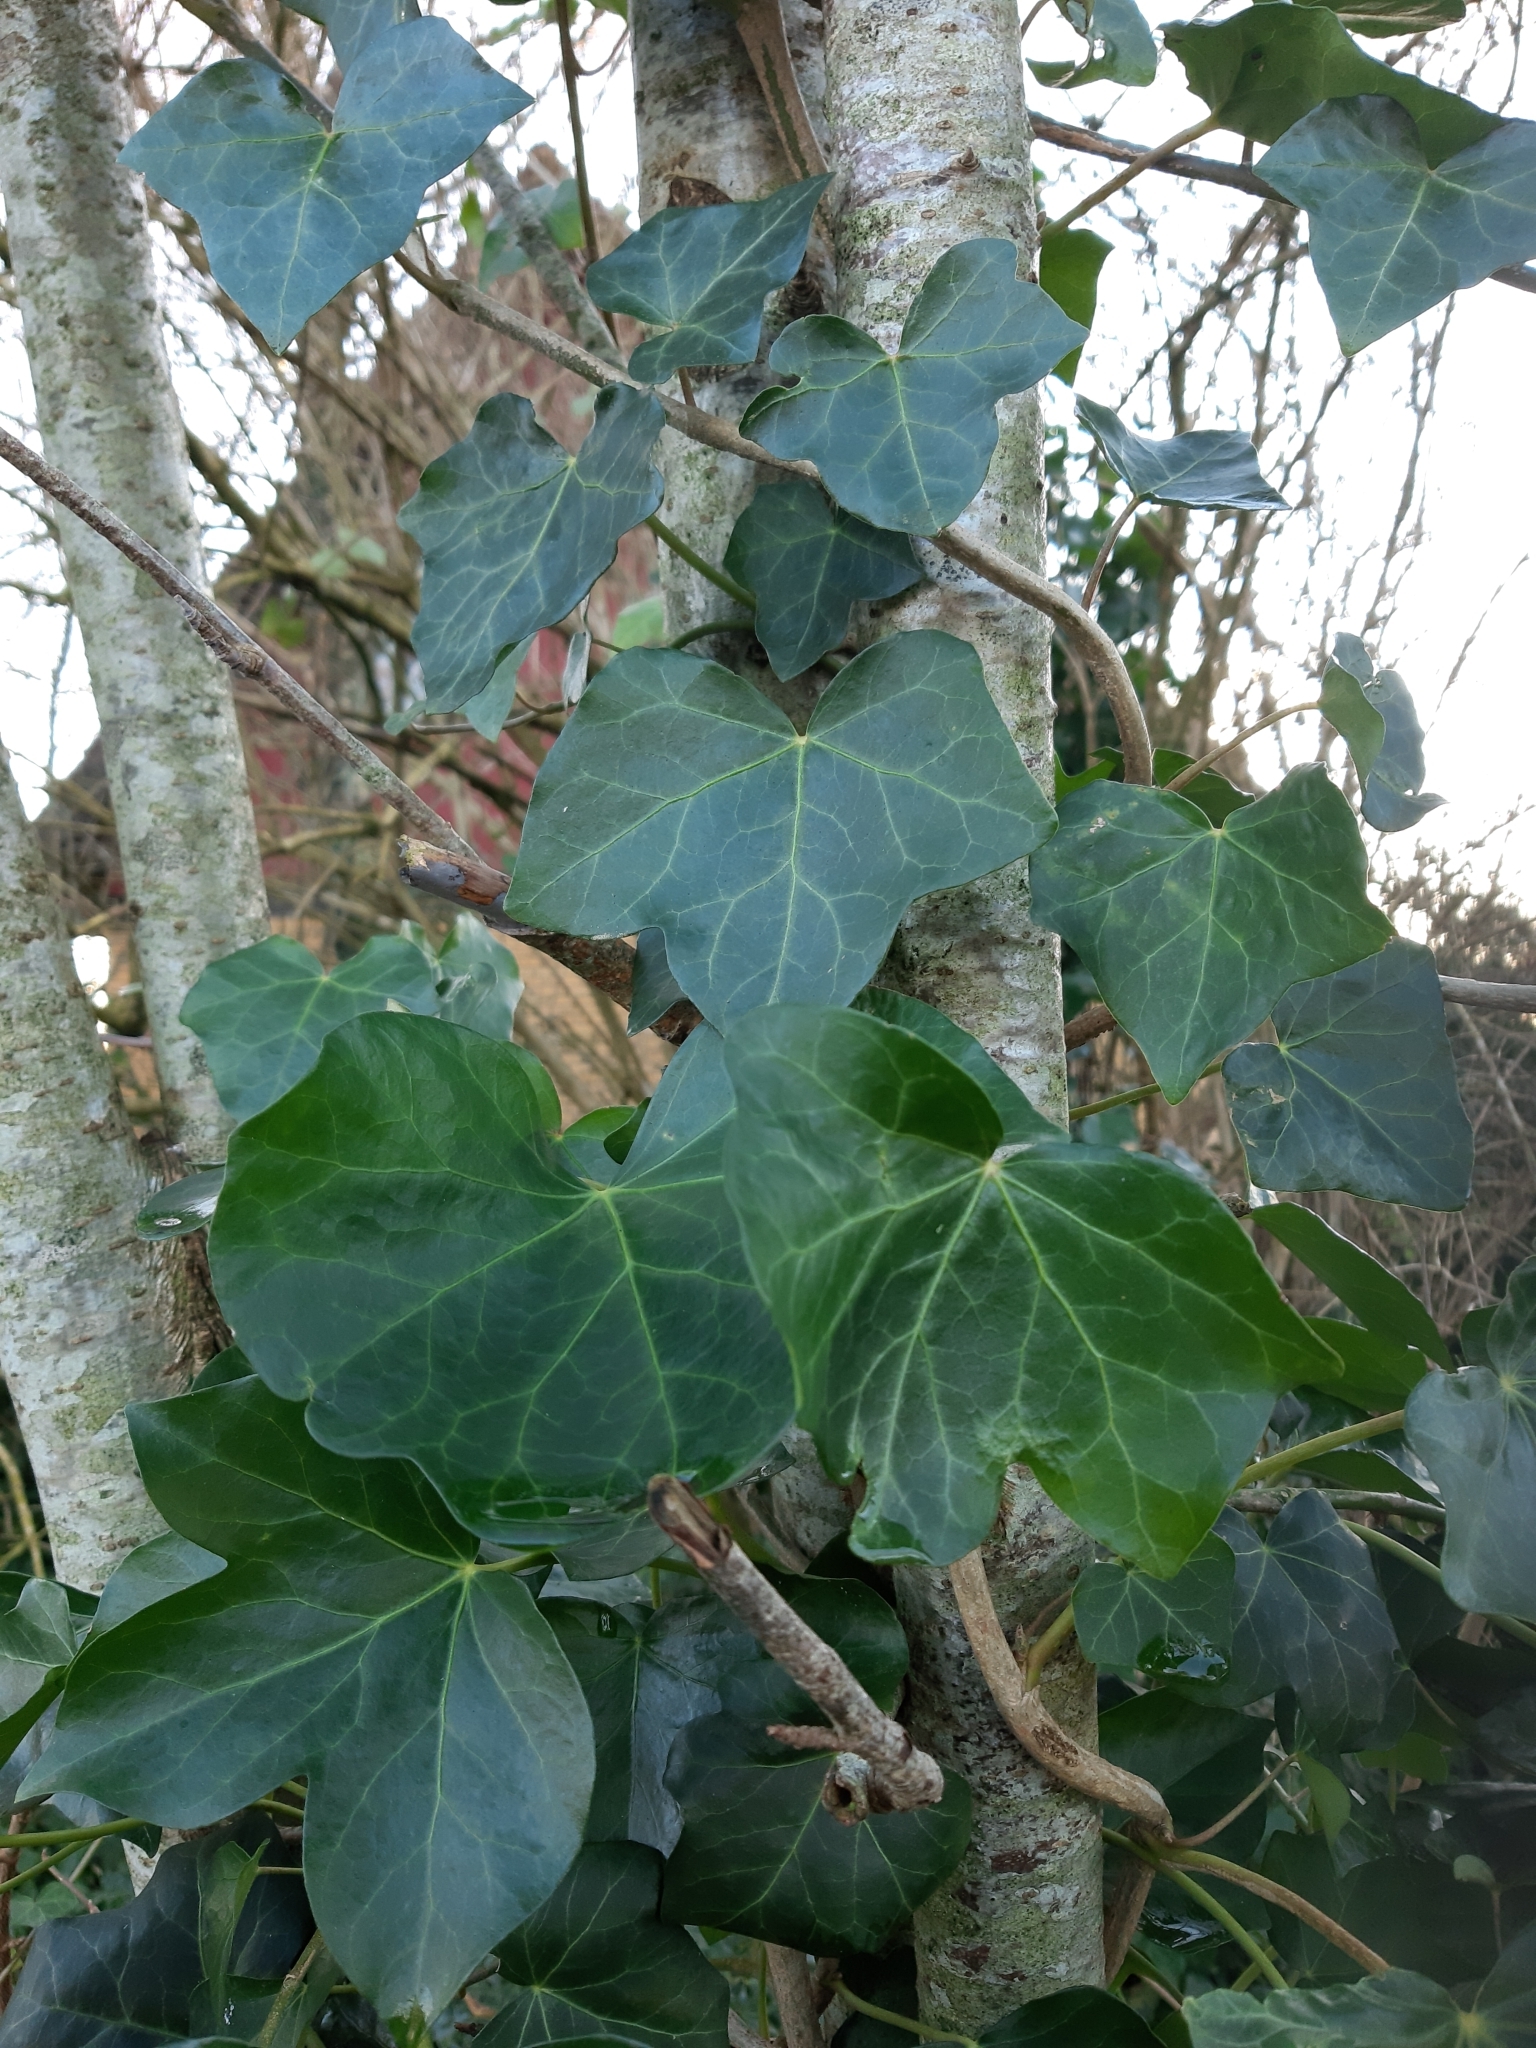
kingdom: Plantae
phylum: Tracheophyta
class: Magnoliopsida
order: Apiales
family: Araliaceae
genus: Hedera
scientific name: Hedera helix
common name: Ivy
